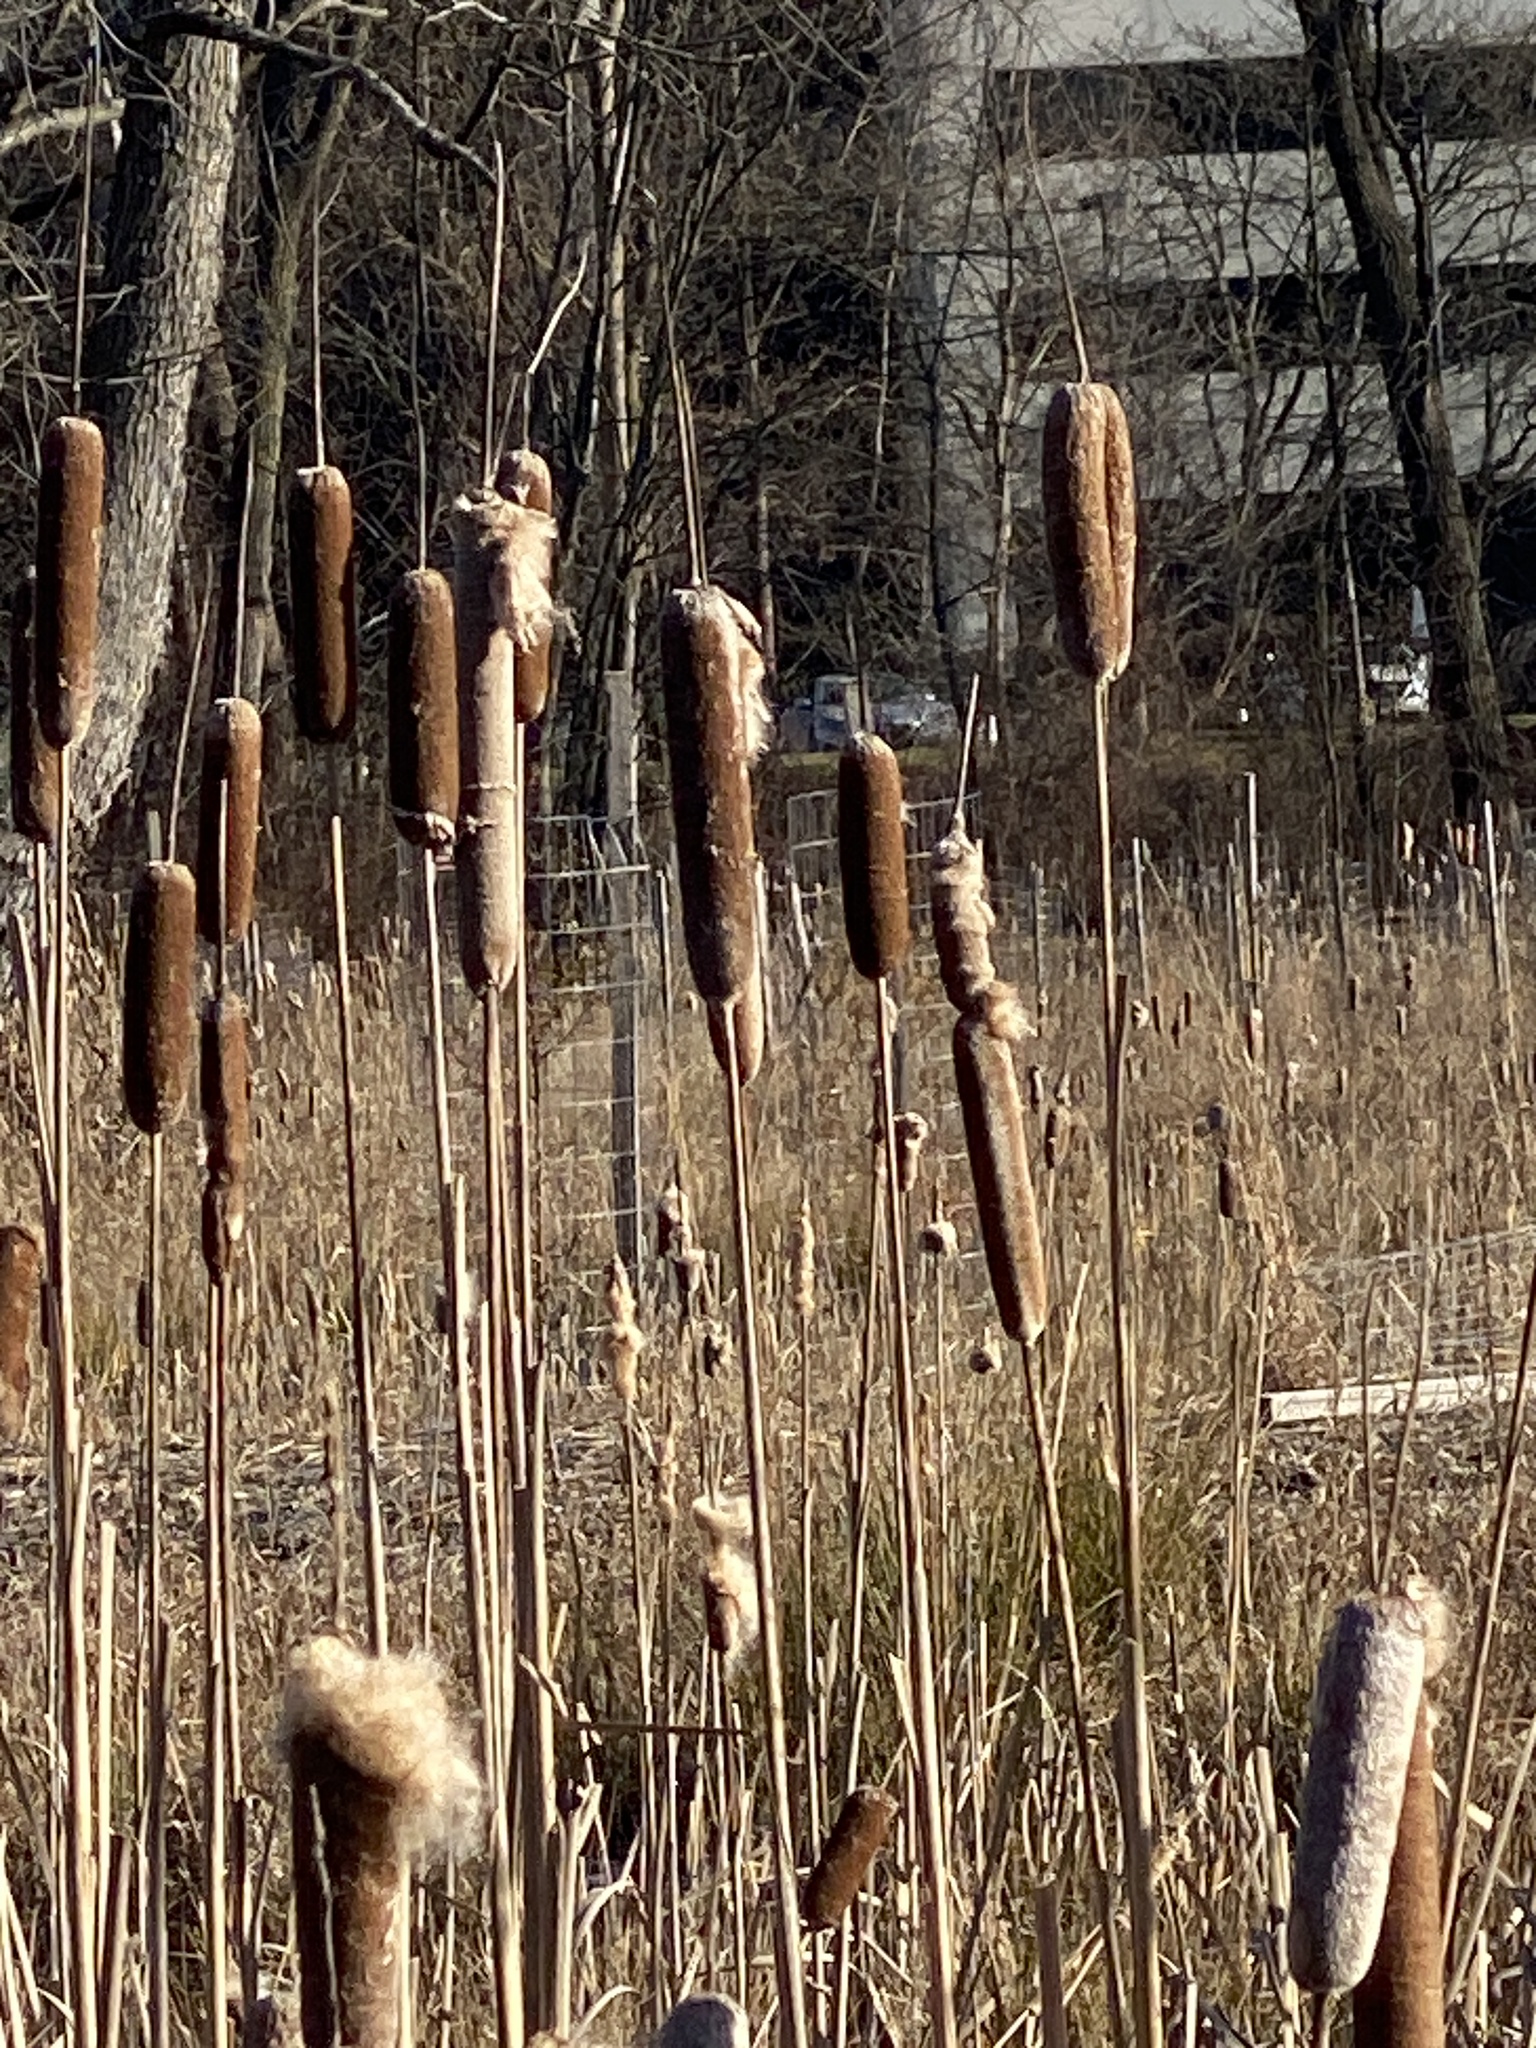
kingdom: Plantae
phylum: Tracheophyta
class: Liliopsida
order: Poales
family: Typhaceae
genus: Typha
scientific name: Typha
